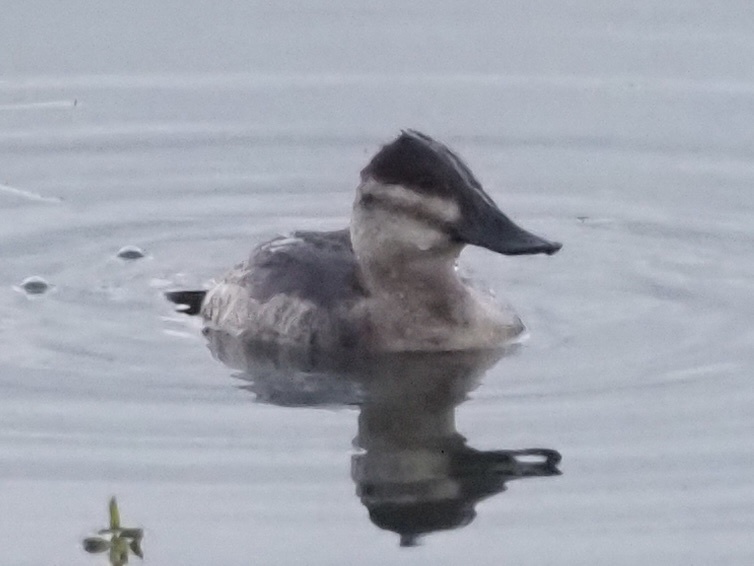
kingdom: Animalia
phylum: Chordata
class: Aves
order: Anseriformes
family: Anatidae
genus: Oxyura
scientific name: Oxyura jamaicensis
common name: Ruddy duck
